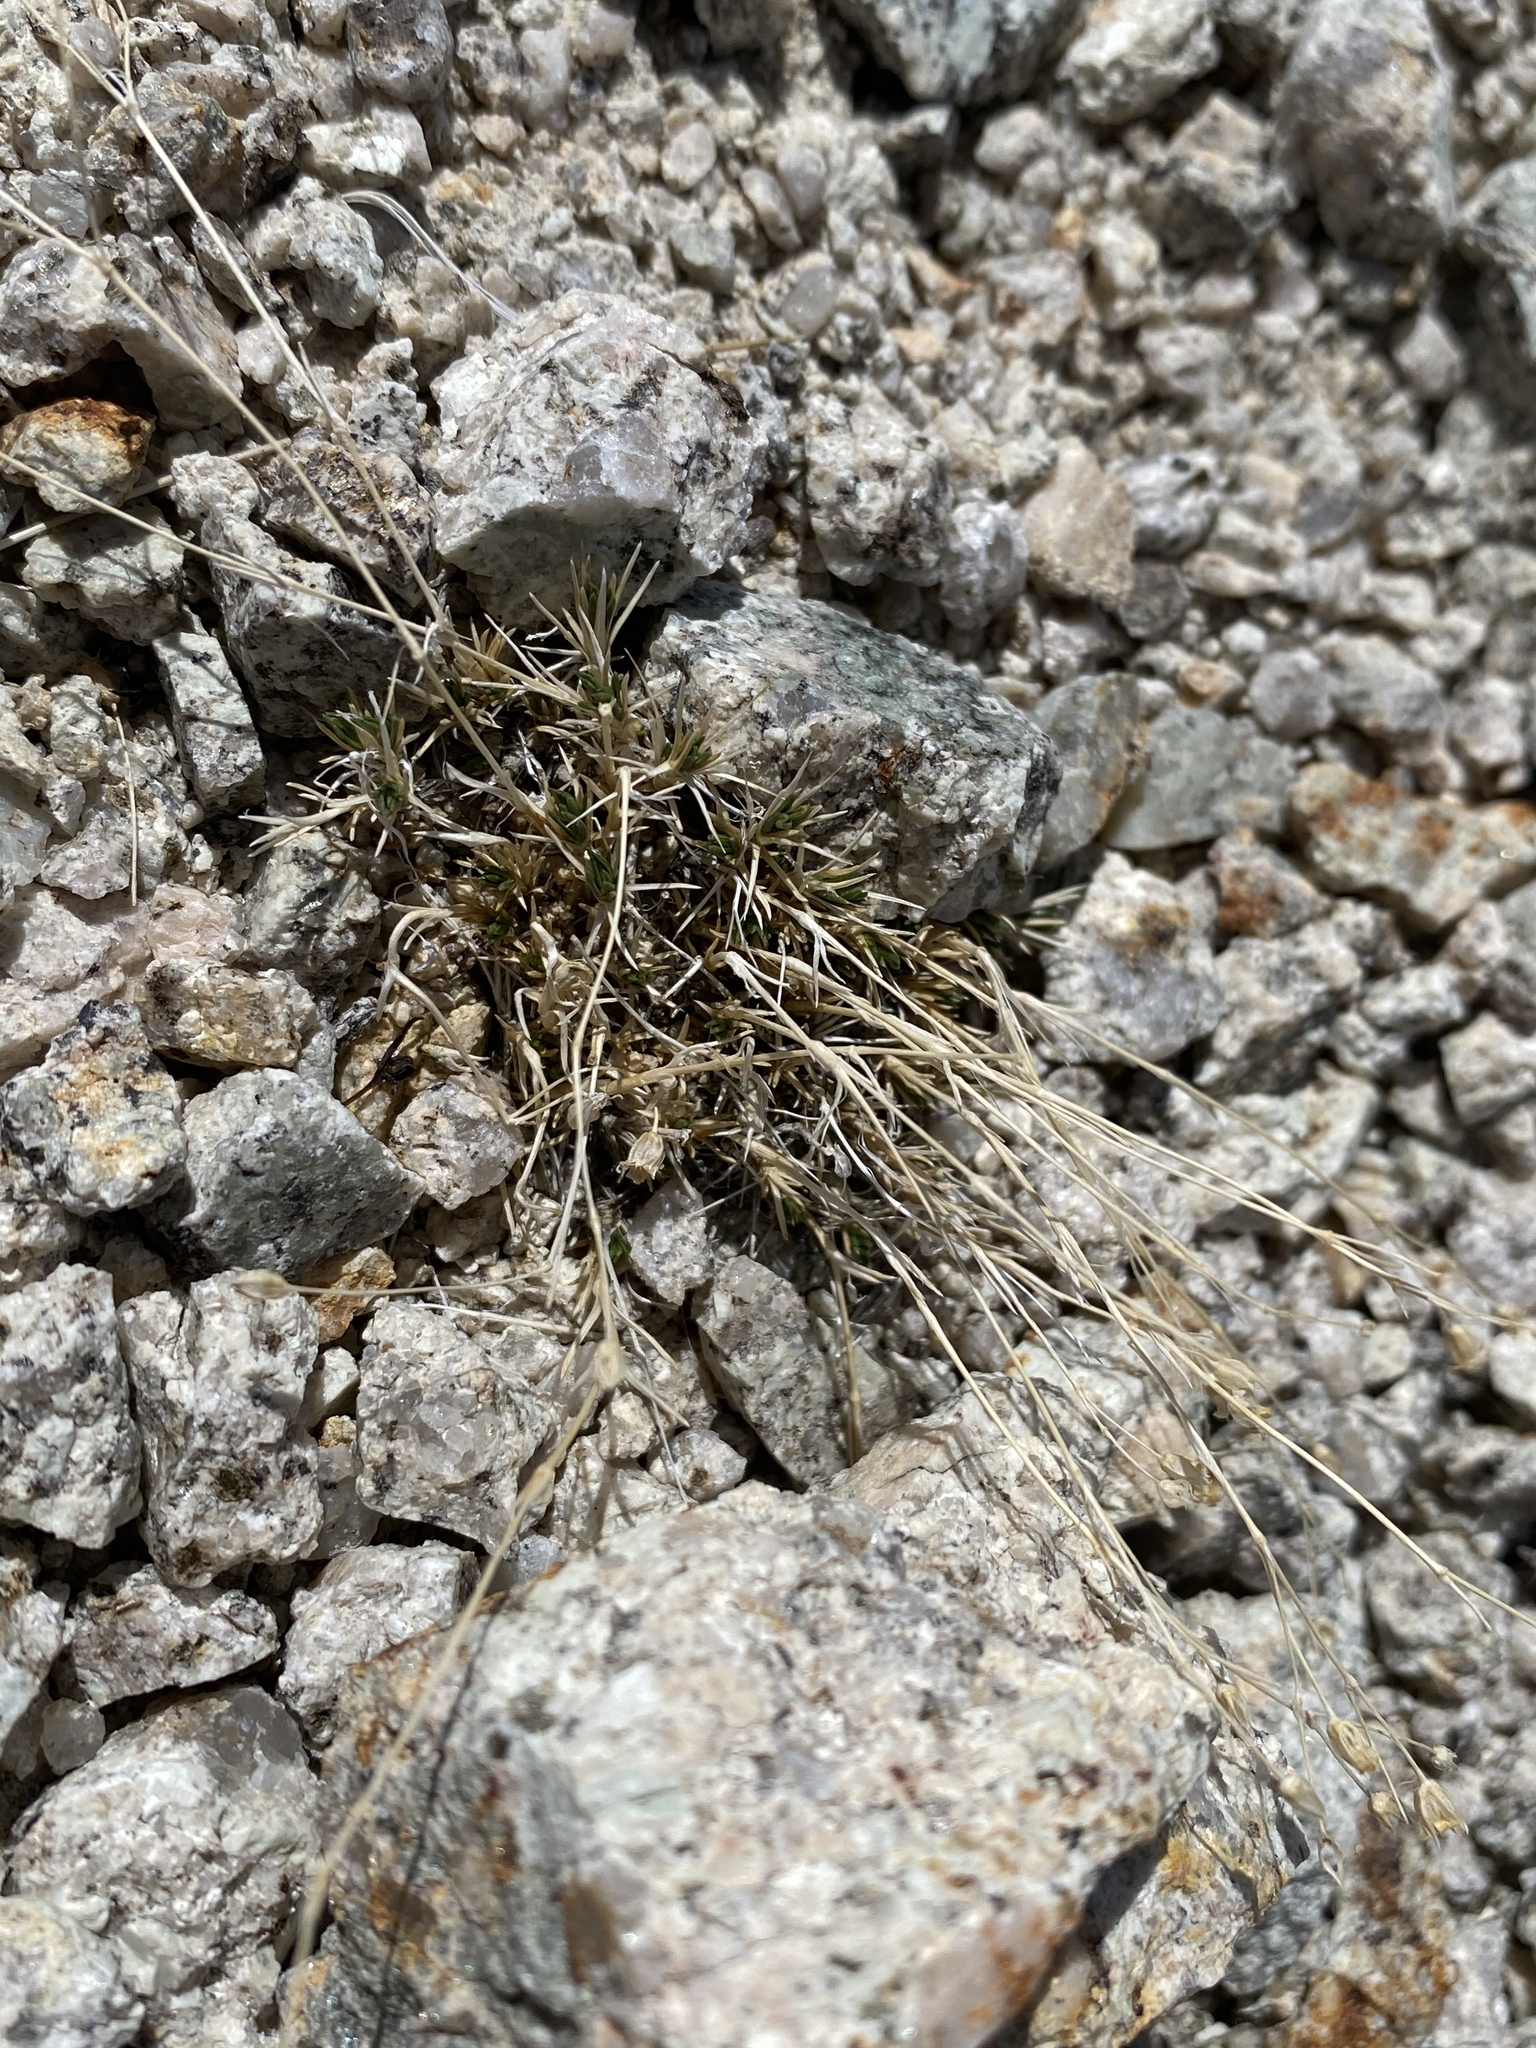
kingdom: Plantae
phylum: Tracheophyta
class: Magnoliopsida
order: Caryophyllales
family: Caryophyllaceae
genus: Eremogone
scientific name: Eremogone kingii
